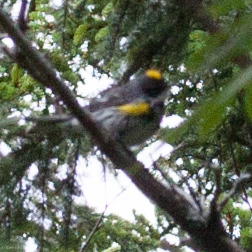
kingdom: Animalia
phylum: Chordata
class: Aves
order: Passeriformes
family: Parulidae
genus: Setophaga
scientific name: Setophaga coronata
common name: Myrtle warbler
